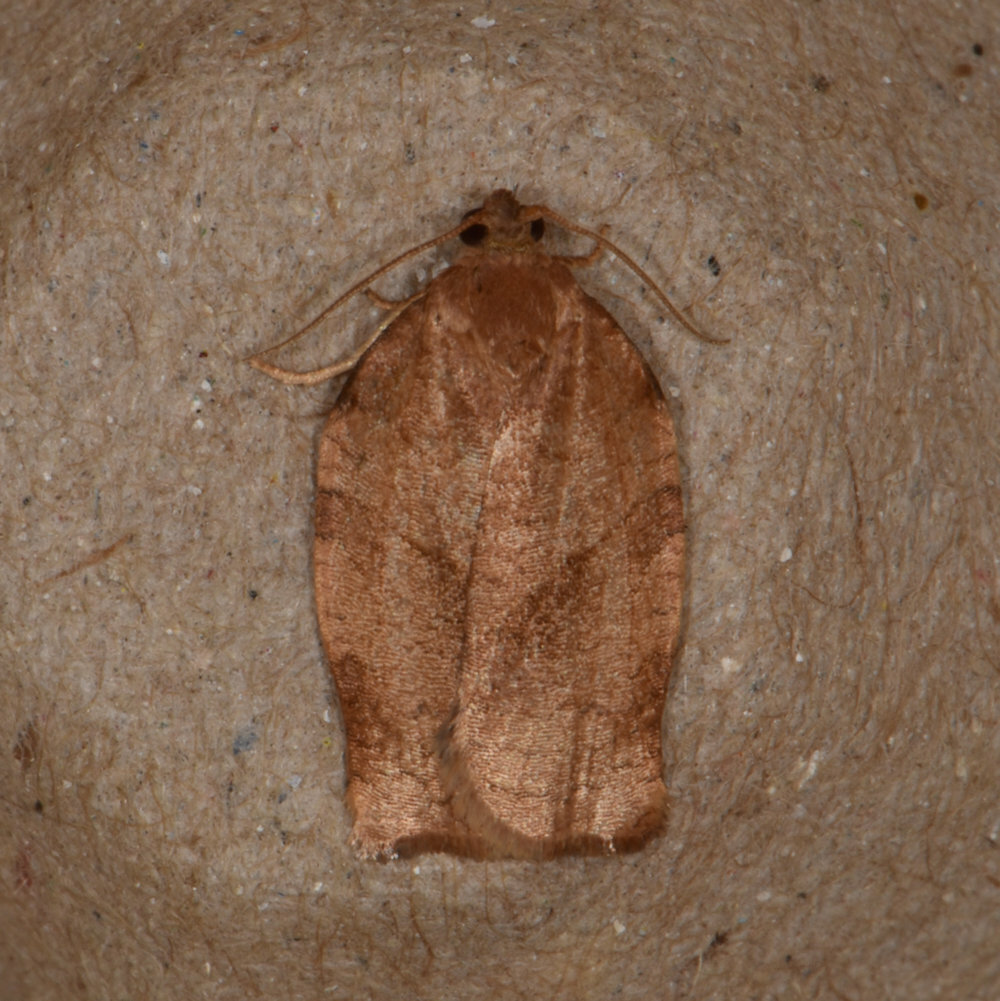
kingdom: Animalia
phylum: Arthropoda
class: Insecta
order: Lepidoptera
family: Tortricidae
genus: Choristoneura
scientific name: Choristoneura rosaceana
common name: Oblique-banded leafroller moth
